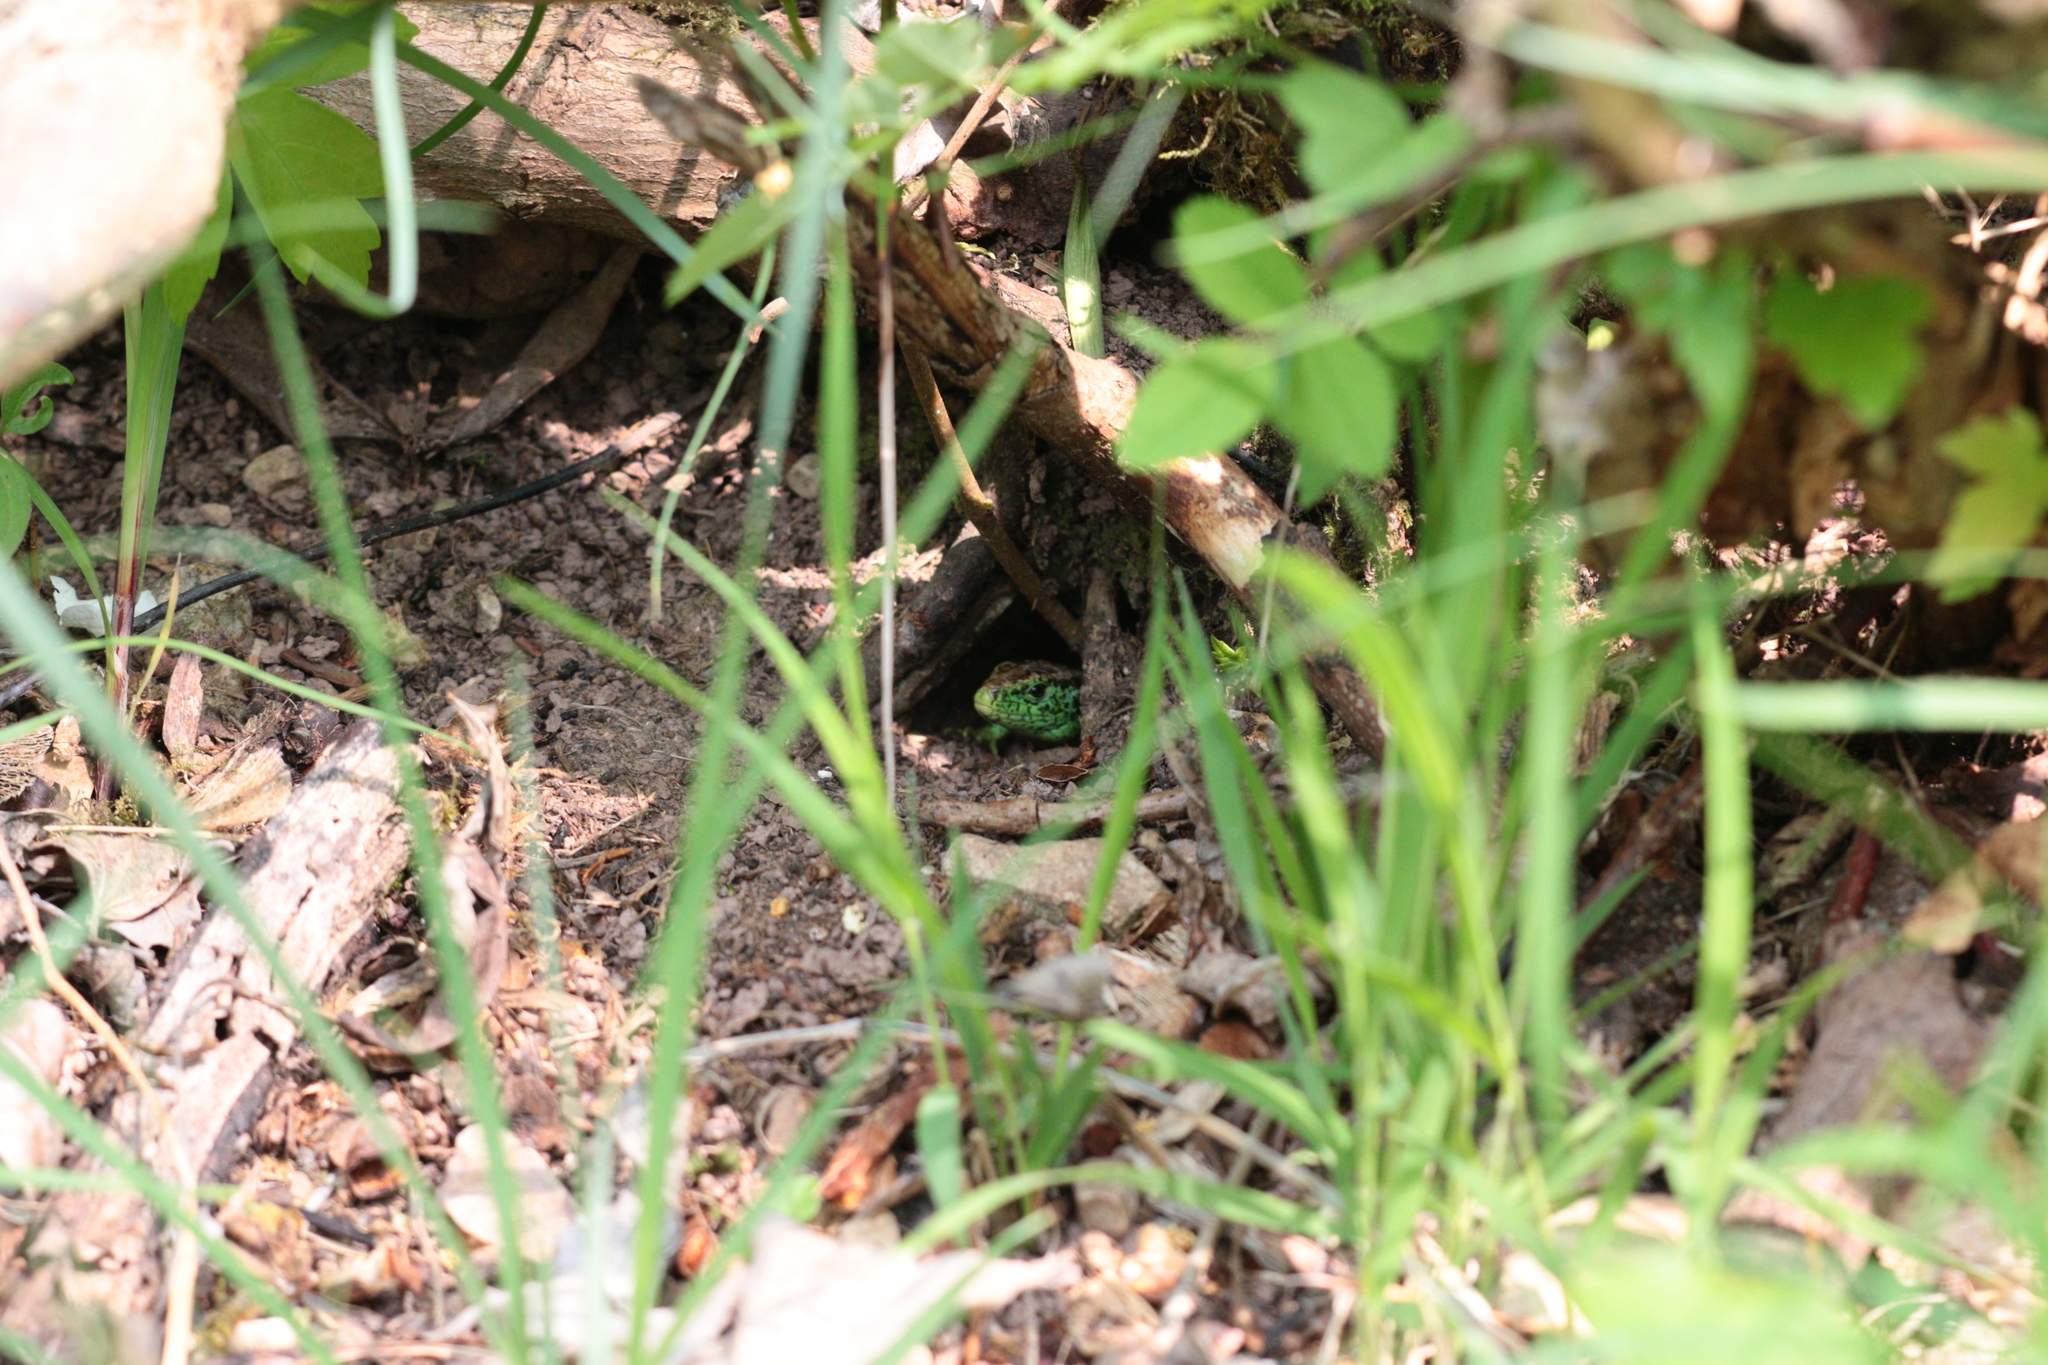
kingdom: Animalia
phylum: Chordata
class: Squamata
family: Lacertidae
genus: Lacerta
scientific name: Lacerta agilis
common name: Sand lizard
